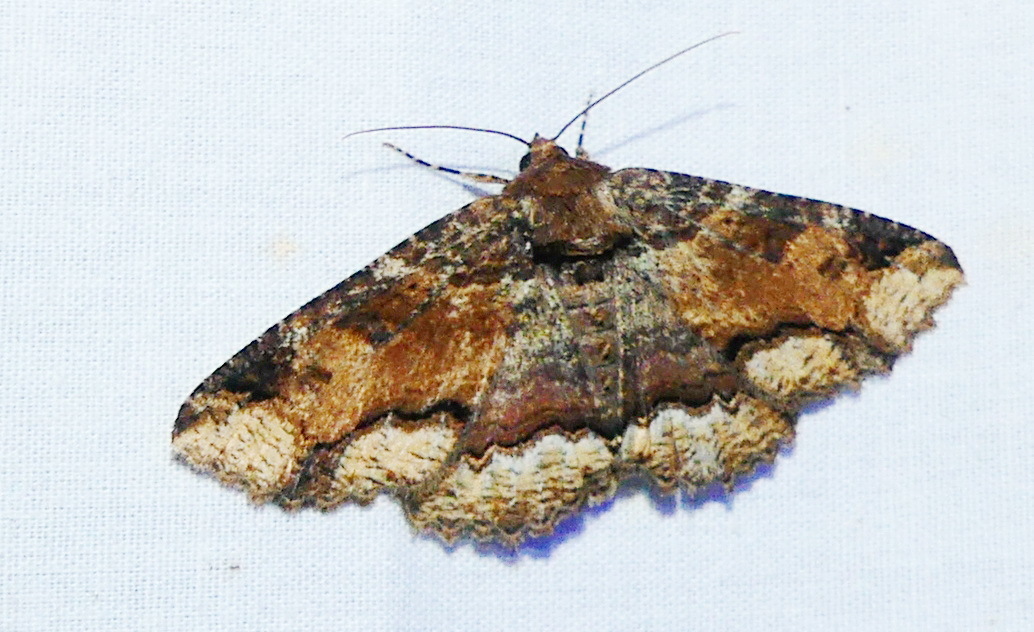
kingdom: Animalia
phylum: Arthropoda
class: Insecta
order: Lepidoptera
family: Erebidae
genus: Zale
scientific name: Zale minerea
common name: Colorful zale moth
